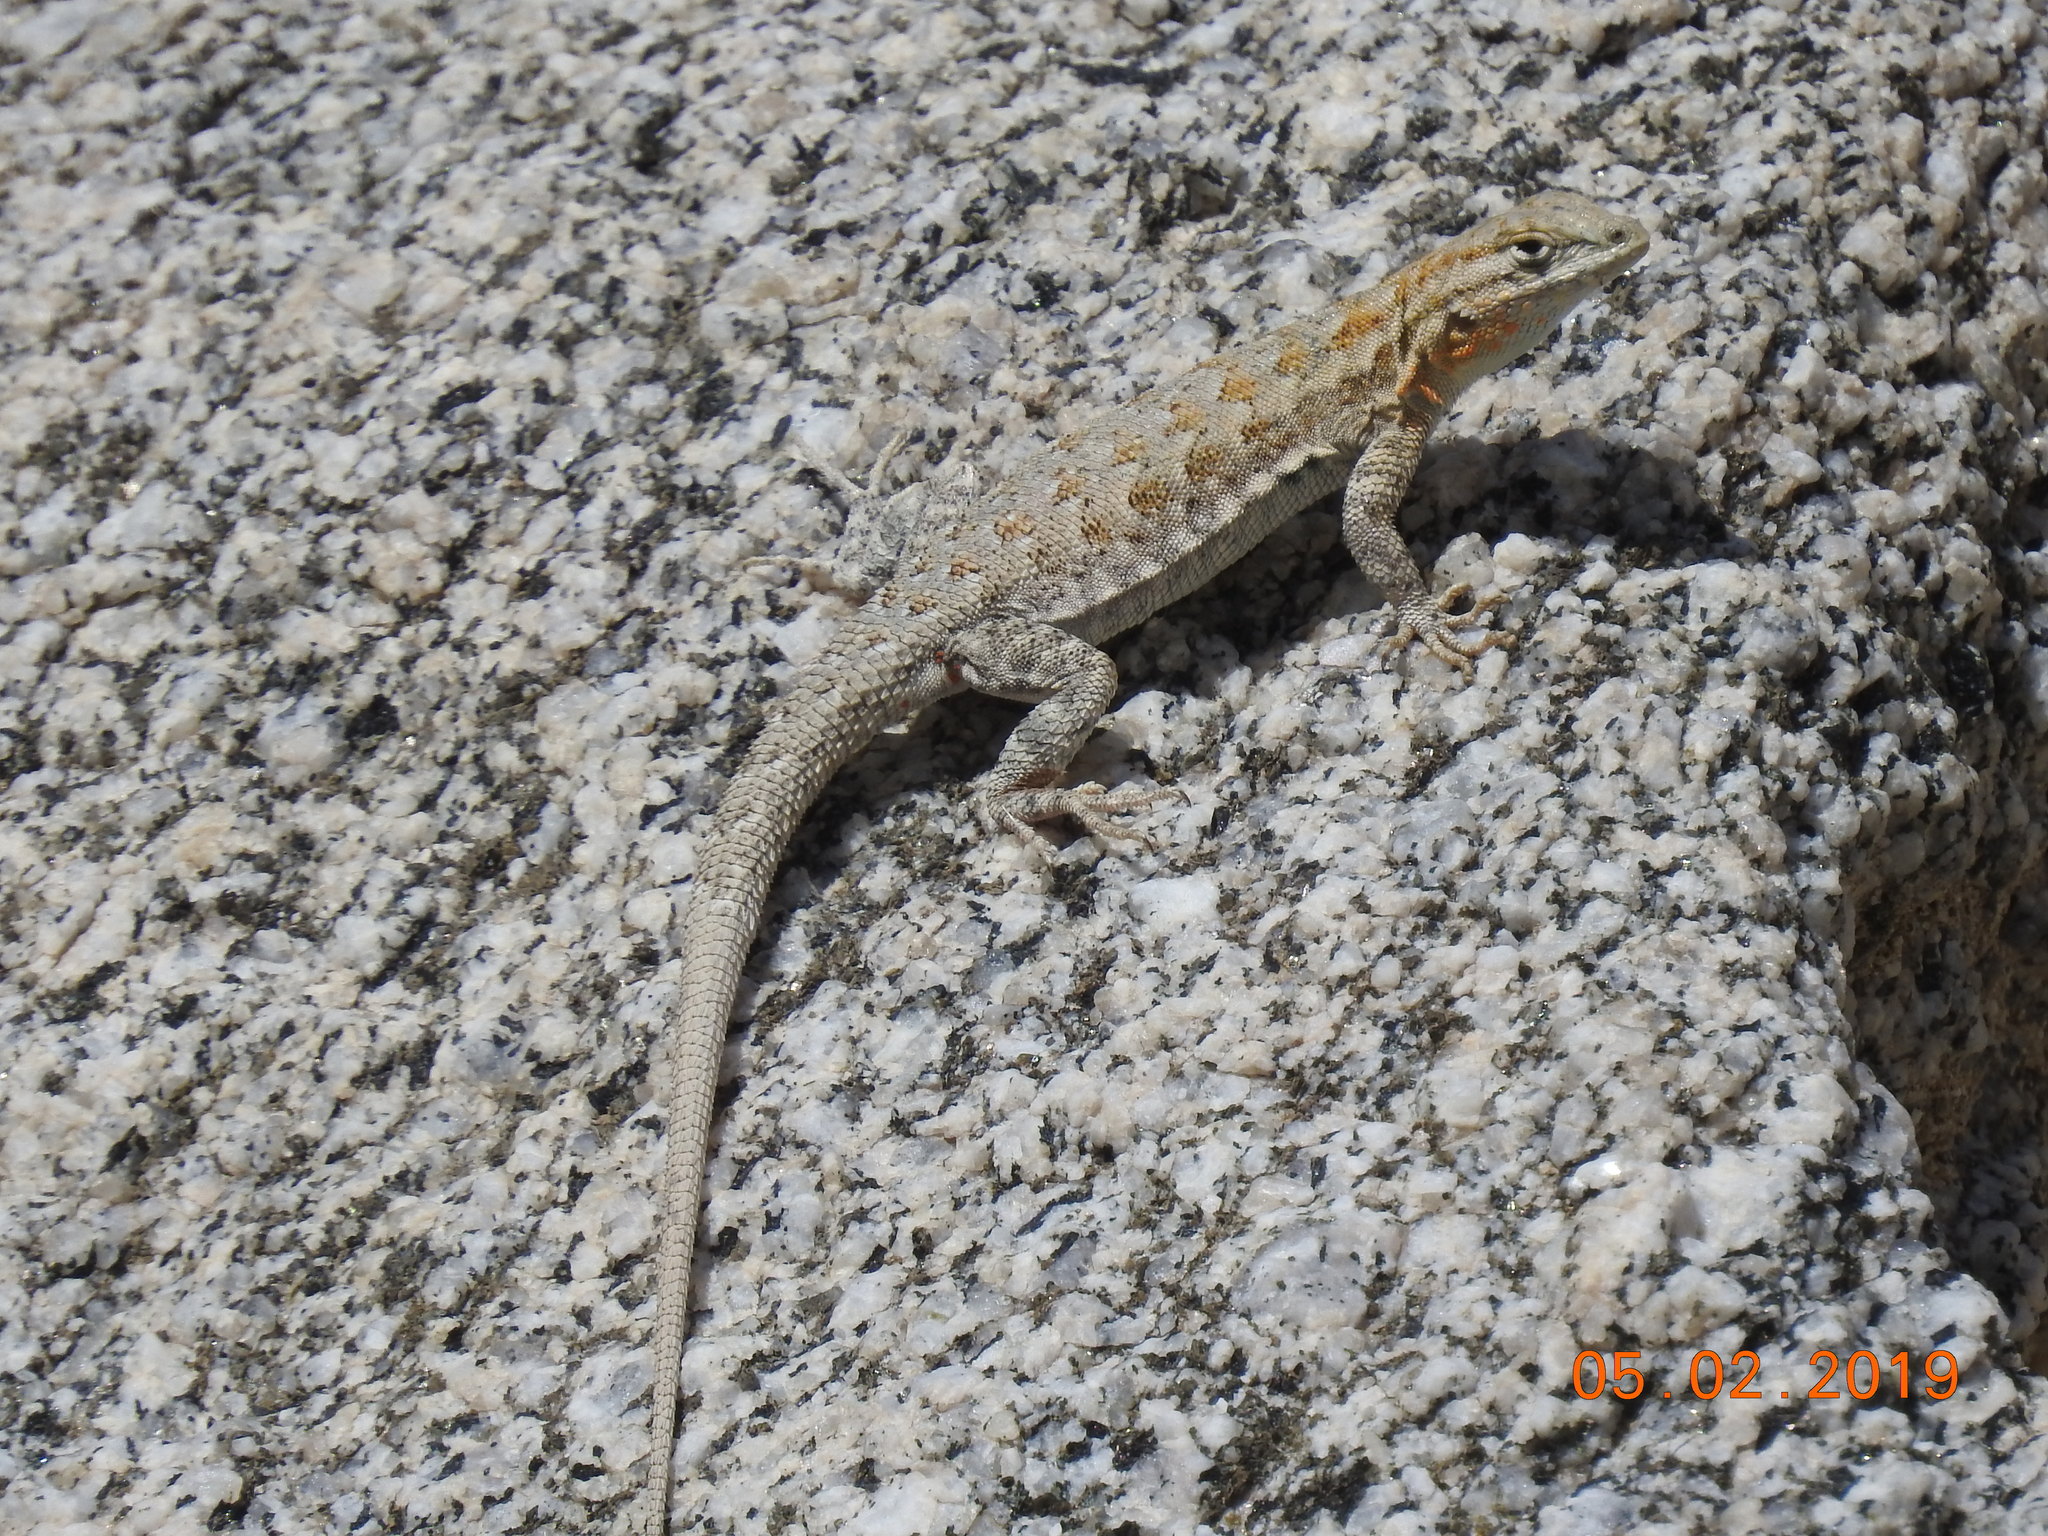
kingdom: Animalia
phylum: Chordata
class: Squamata
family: Phrynosomatidae
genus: Uta
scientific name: Uta stansburiana
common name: Side-blotched lizard
